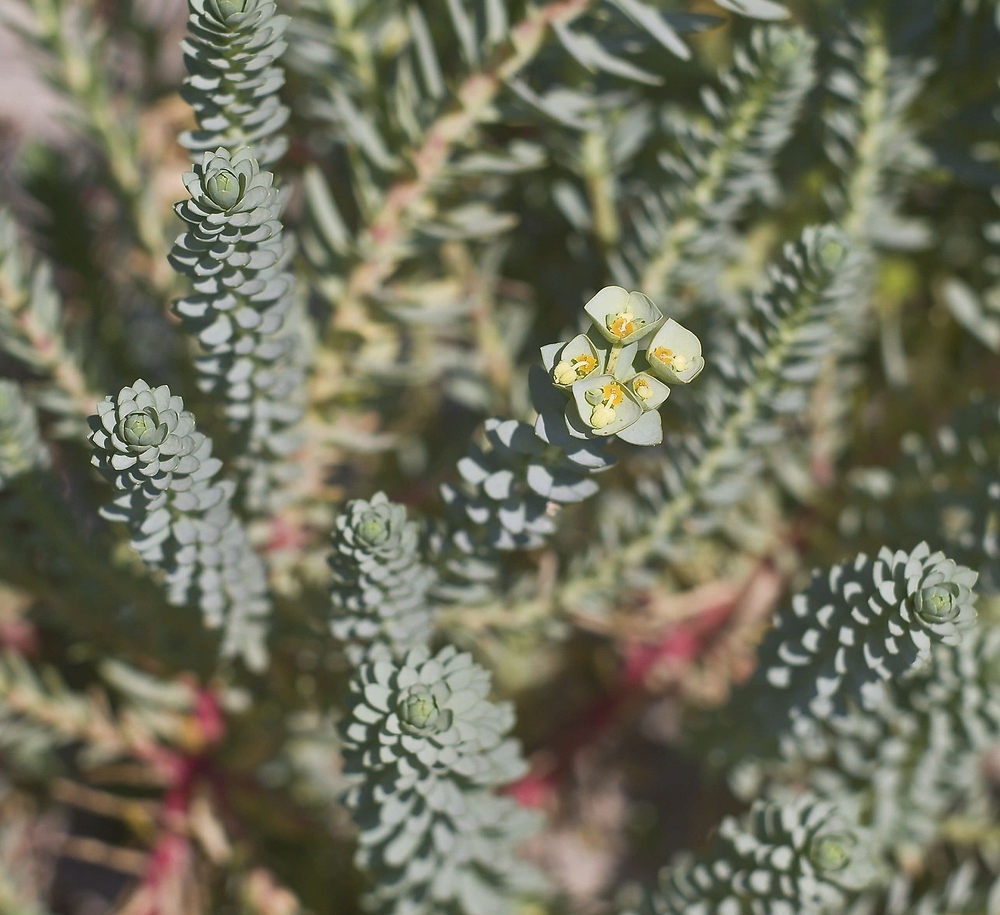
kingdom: Plantae
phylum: Tracheophyta
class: Magnoliopsida
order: Malpighiales
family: Euphorbiaceae
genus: Euphorbia
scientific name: Euphorbia paralias
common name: Sea spurge
